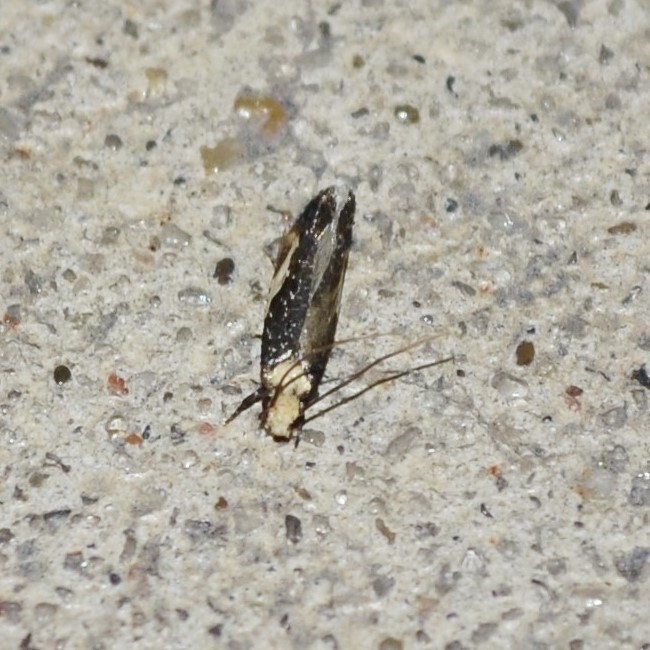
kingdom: Animalia
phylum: Arthropoda
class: Insecta
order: Lepidoptera
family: Tineidae
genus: Monopis
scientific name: Monopis longella
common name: Pavlovski's monopis moth
